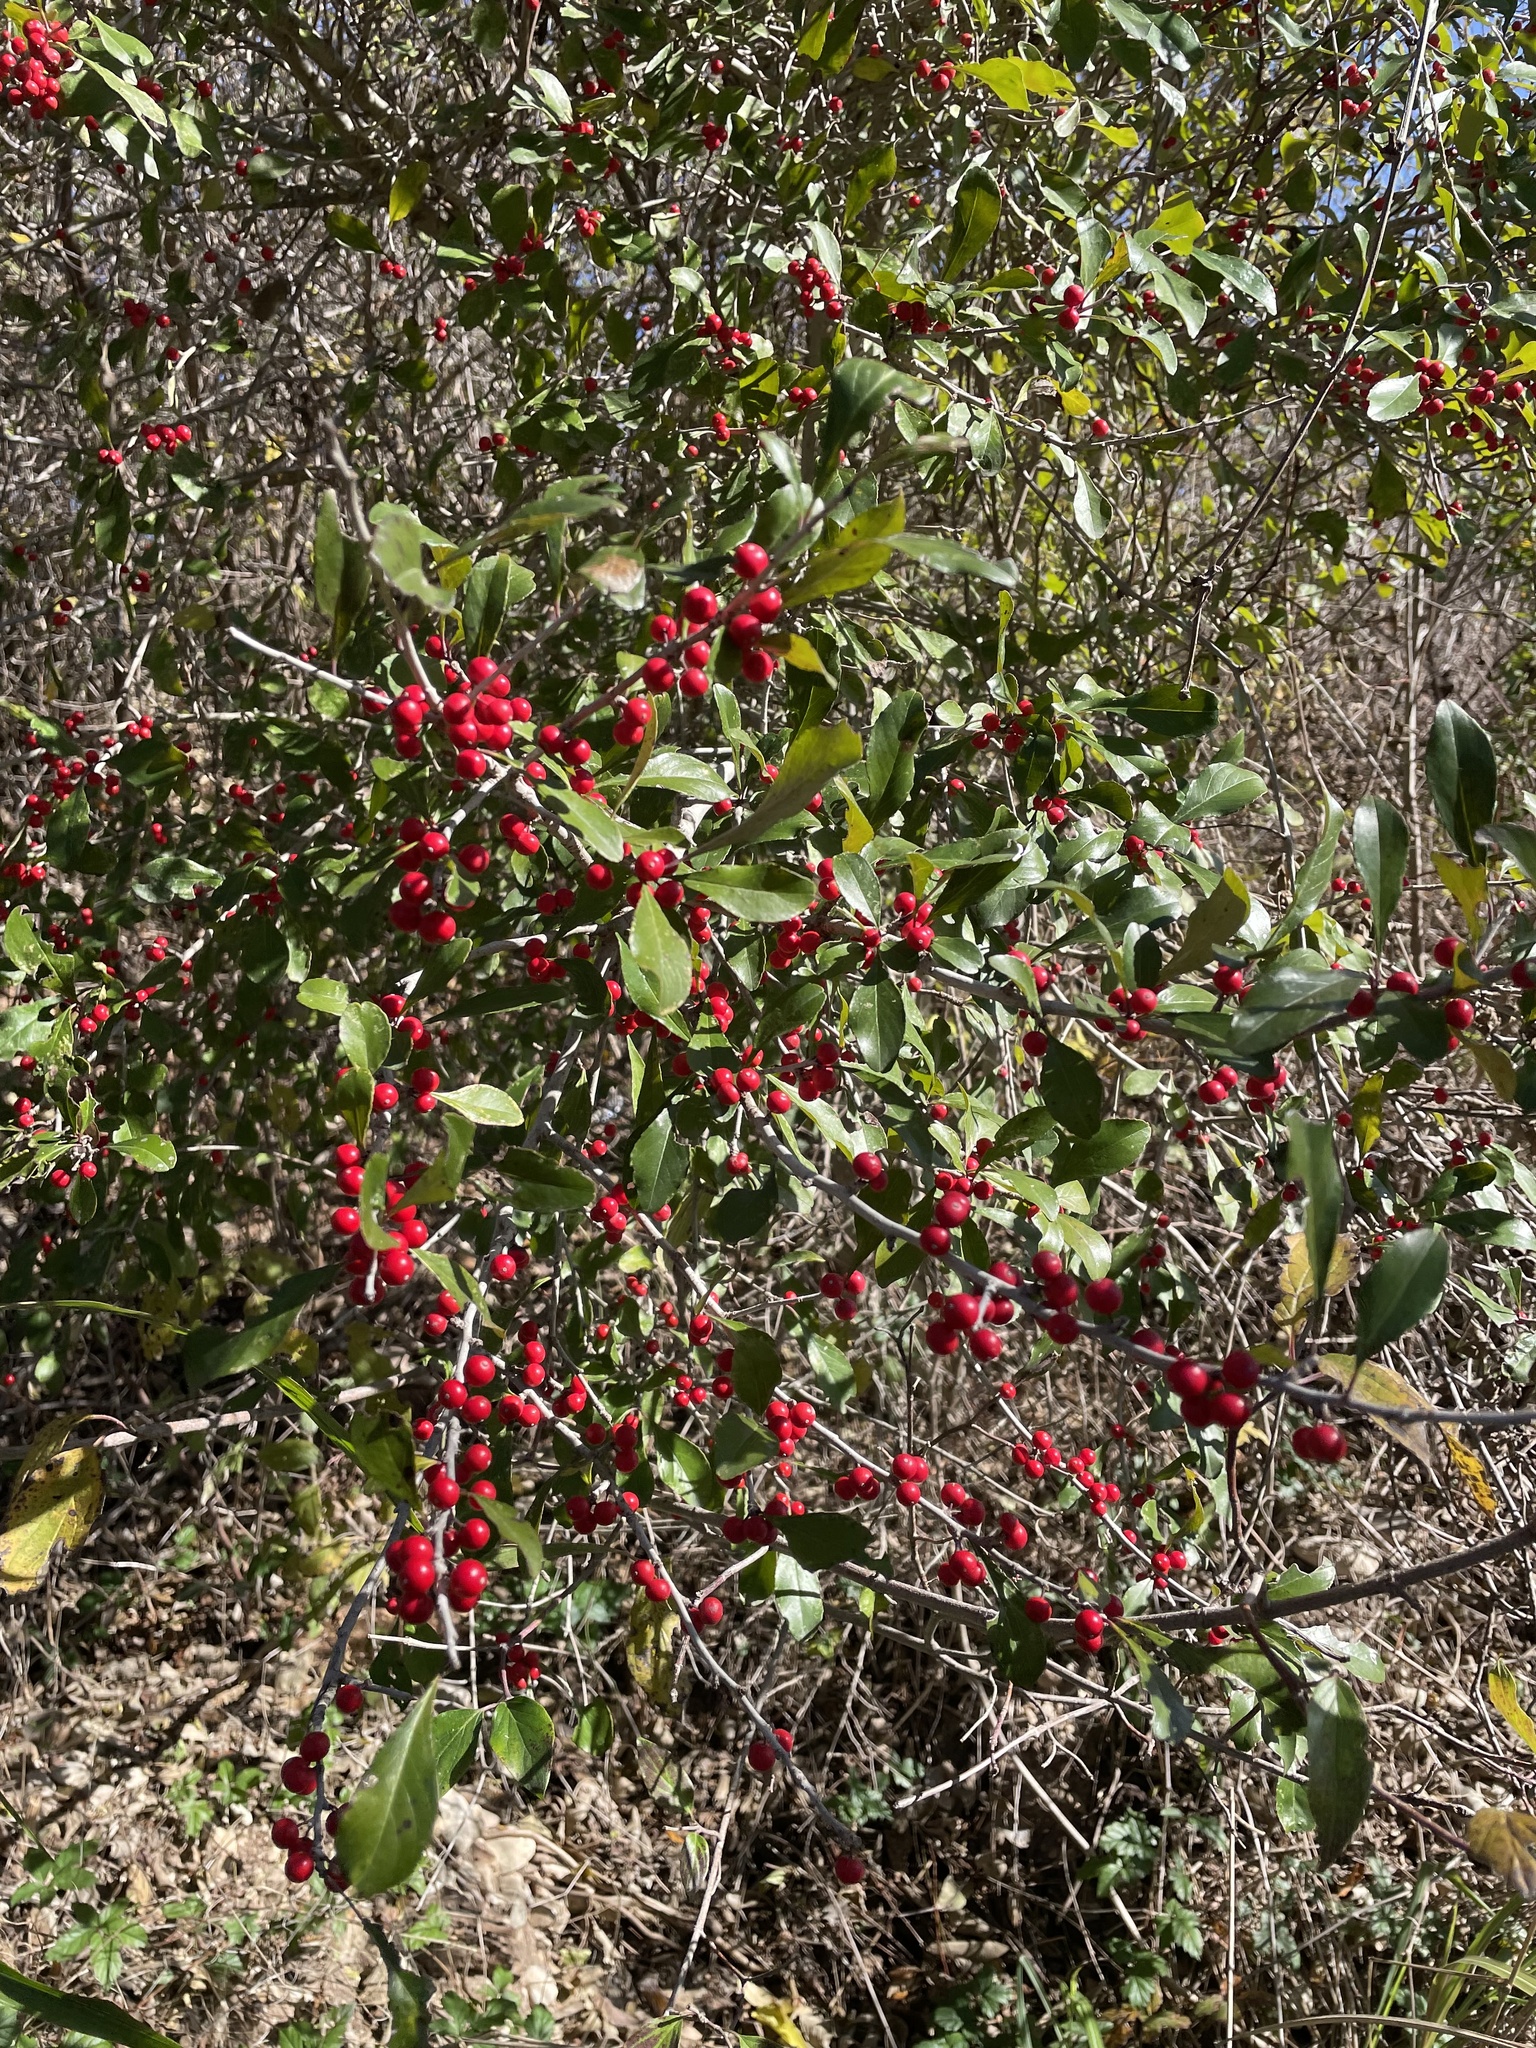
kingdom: Plantae
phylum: Tracheophyta
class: Magnoliopsida
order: Aquifoliales
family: Aquifoliaceae
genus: Ilex
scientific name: Ilex decidua
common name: Possum-haw
